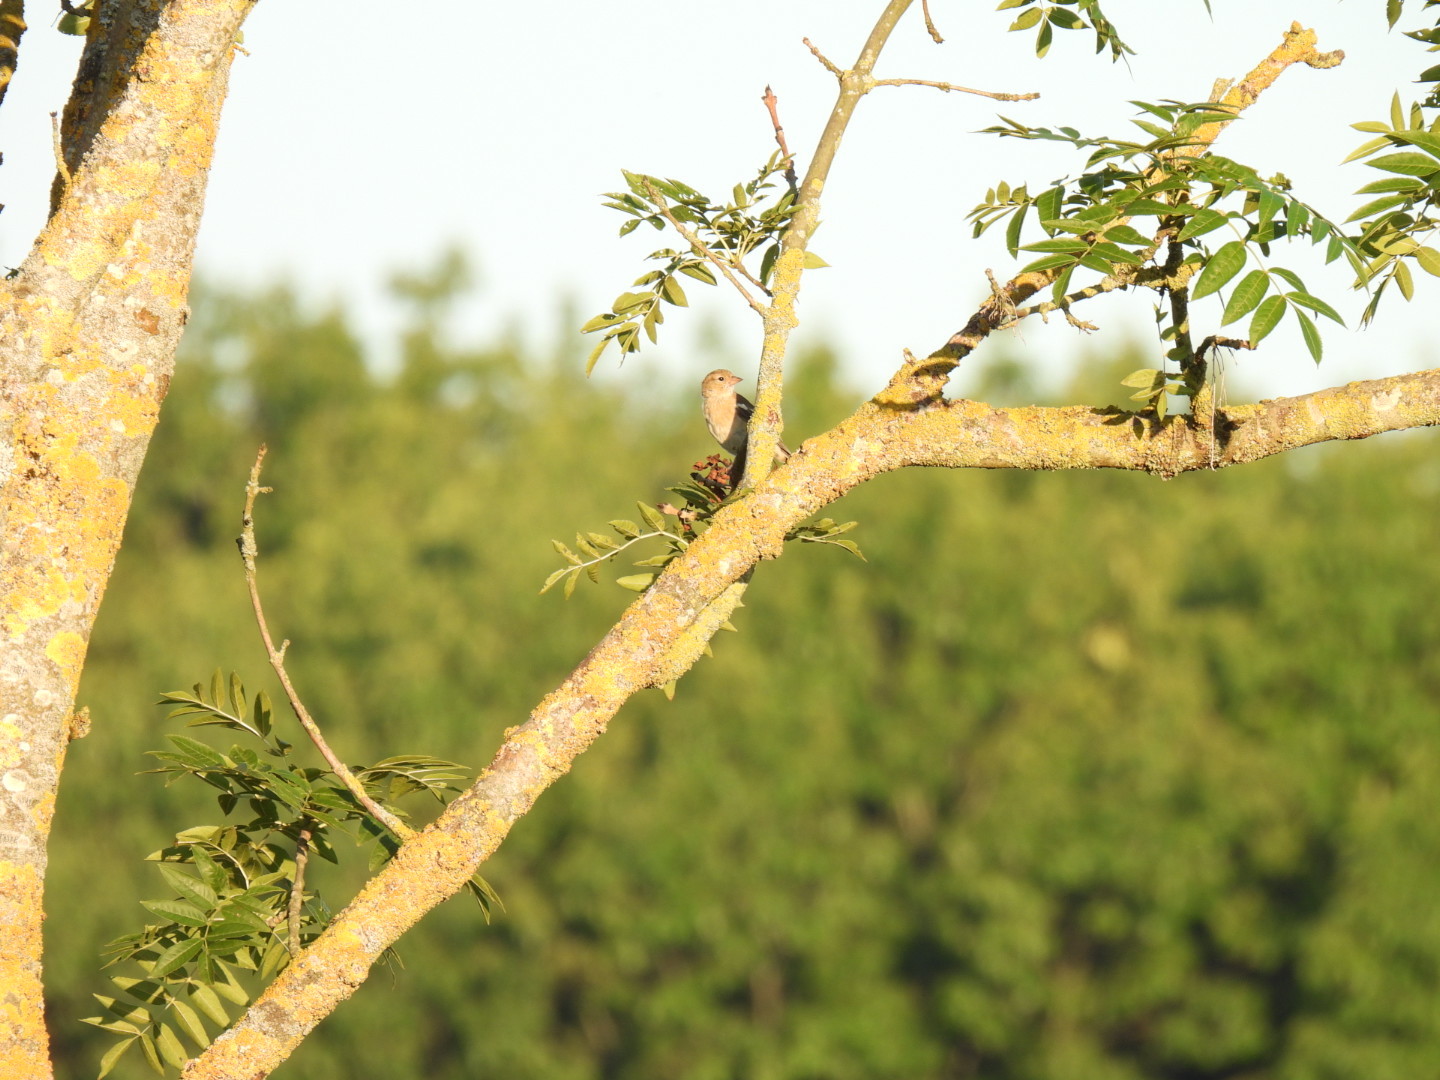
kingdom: Animalia
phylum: Chordata
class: Aves
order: Passeriformes
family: Fringillidae
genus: Fringilla
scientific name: Fringilla coelebs
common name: Common chaffinch
